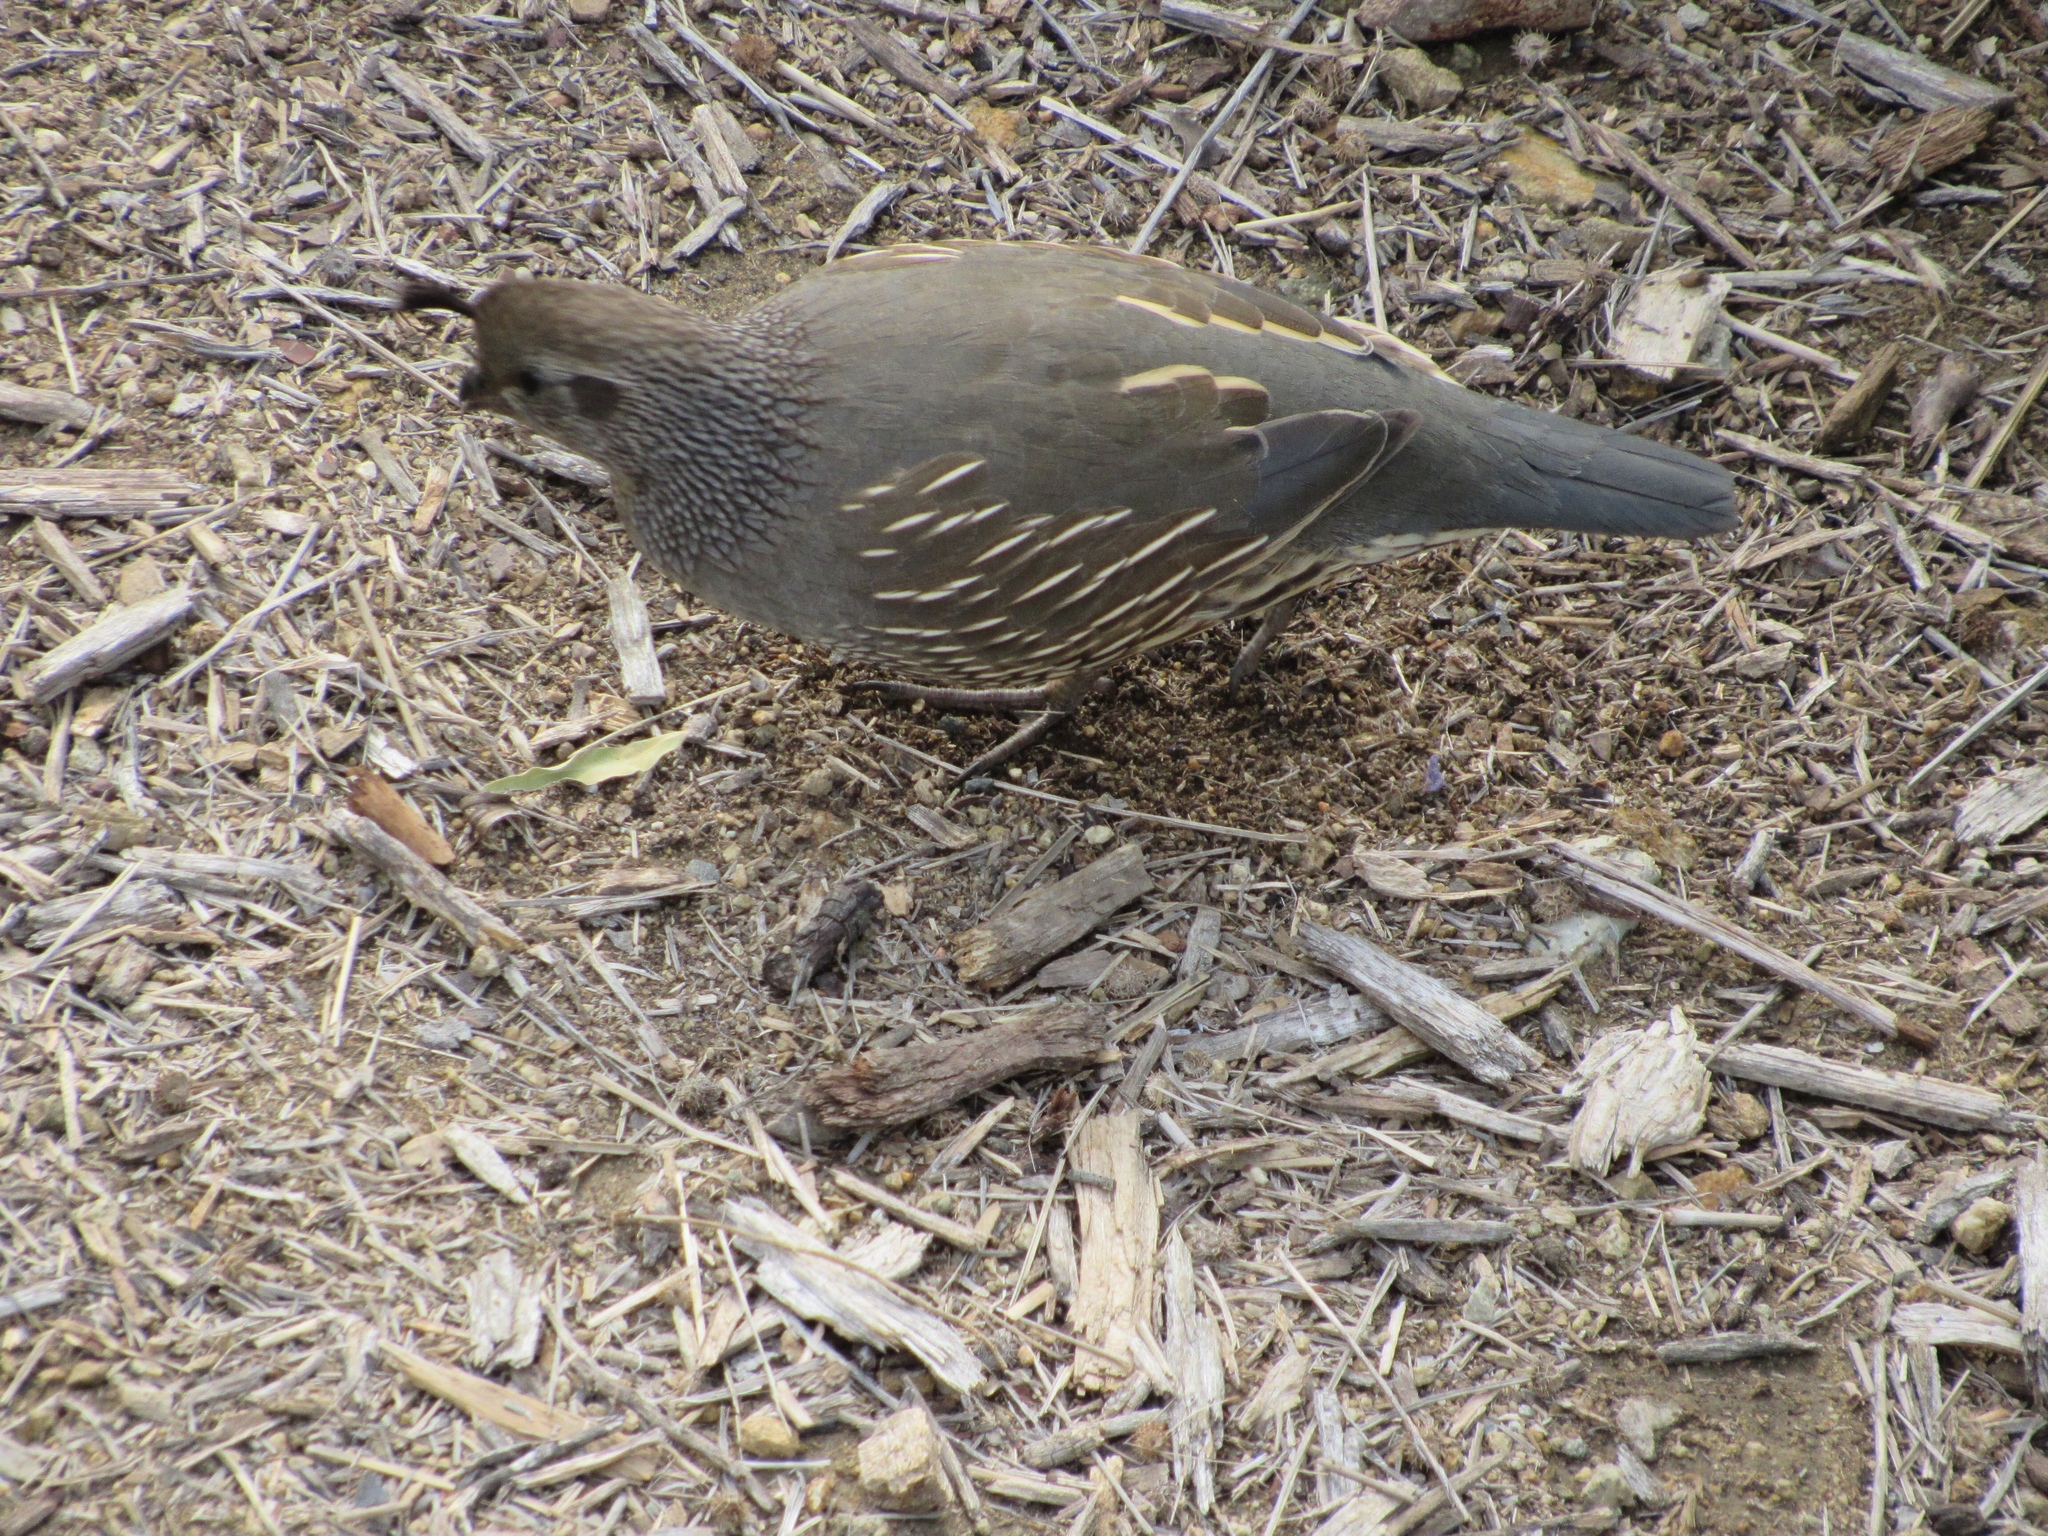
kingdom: Animalia
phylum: Chordata
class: Aves
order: Galliformes
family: Odontophoridae
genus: Callipepla
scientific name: Callipepla californica
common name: California quail
